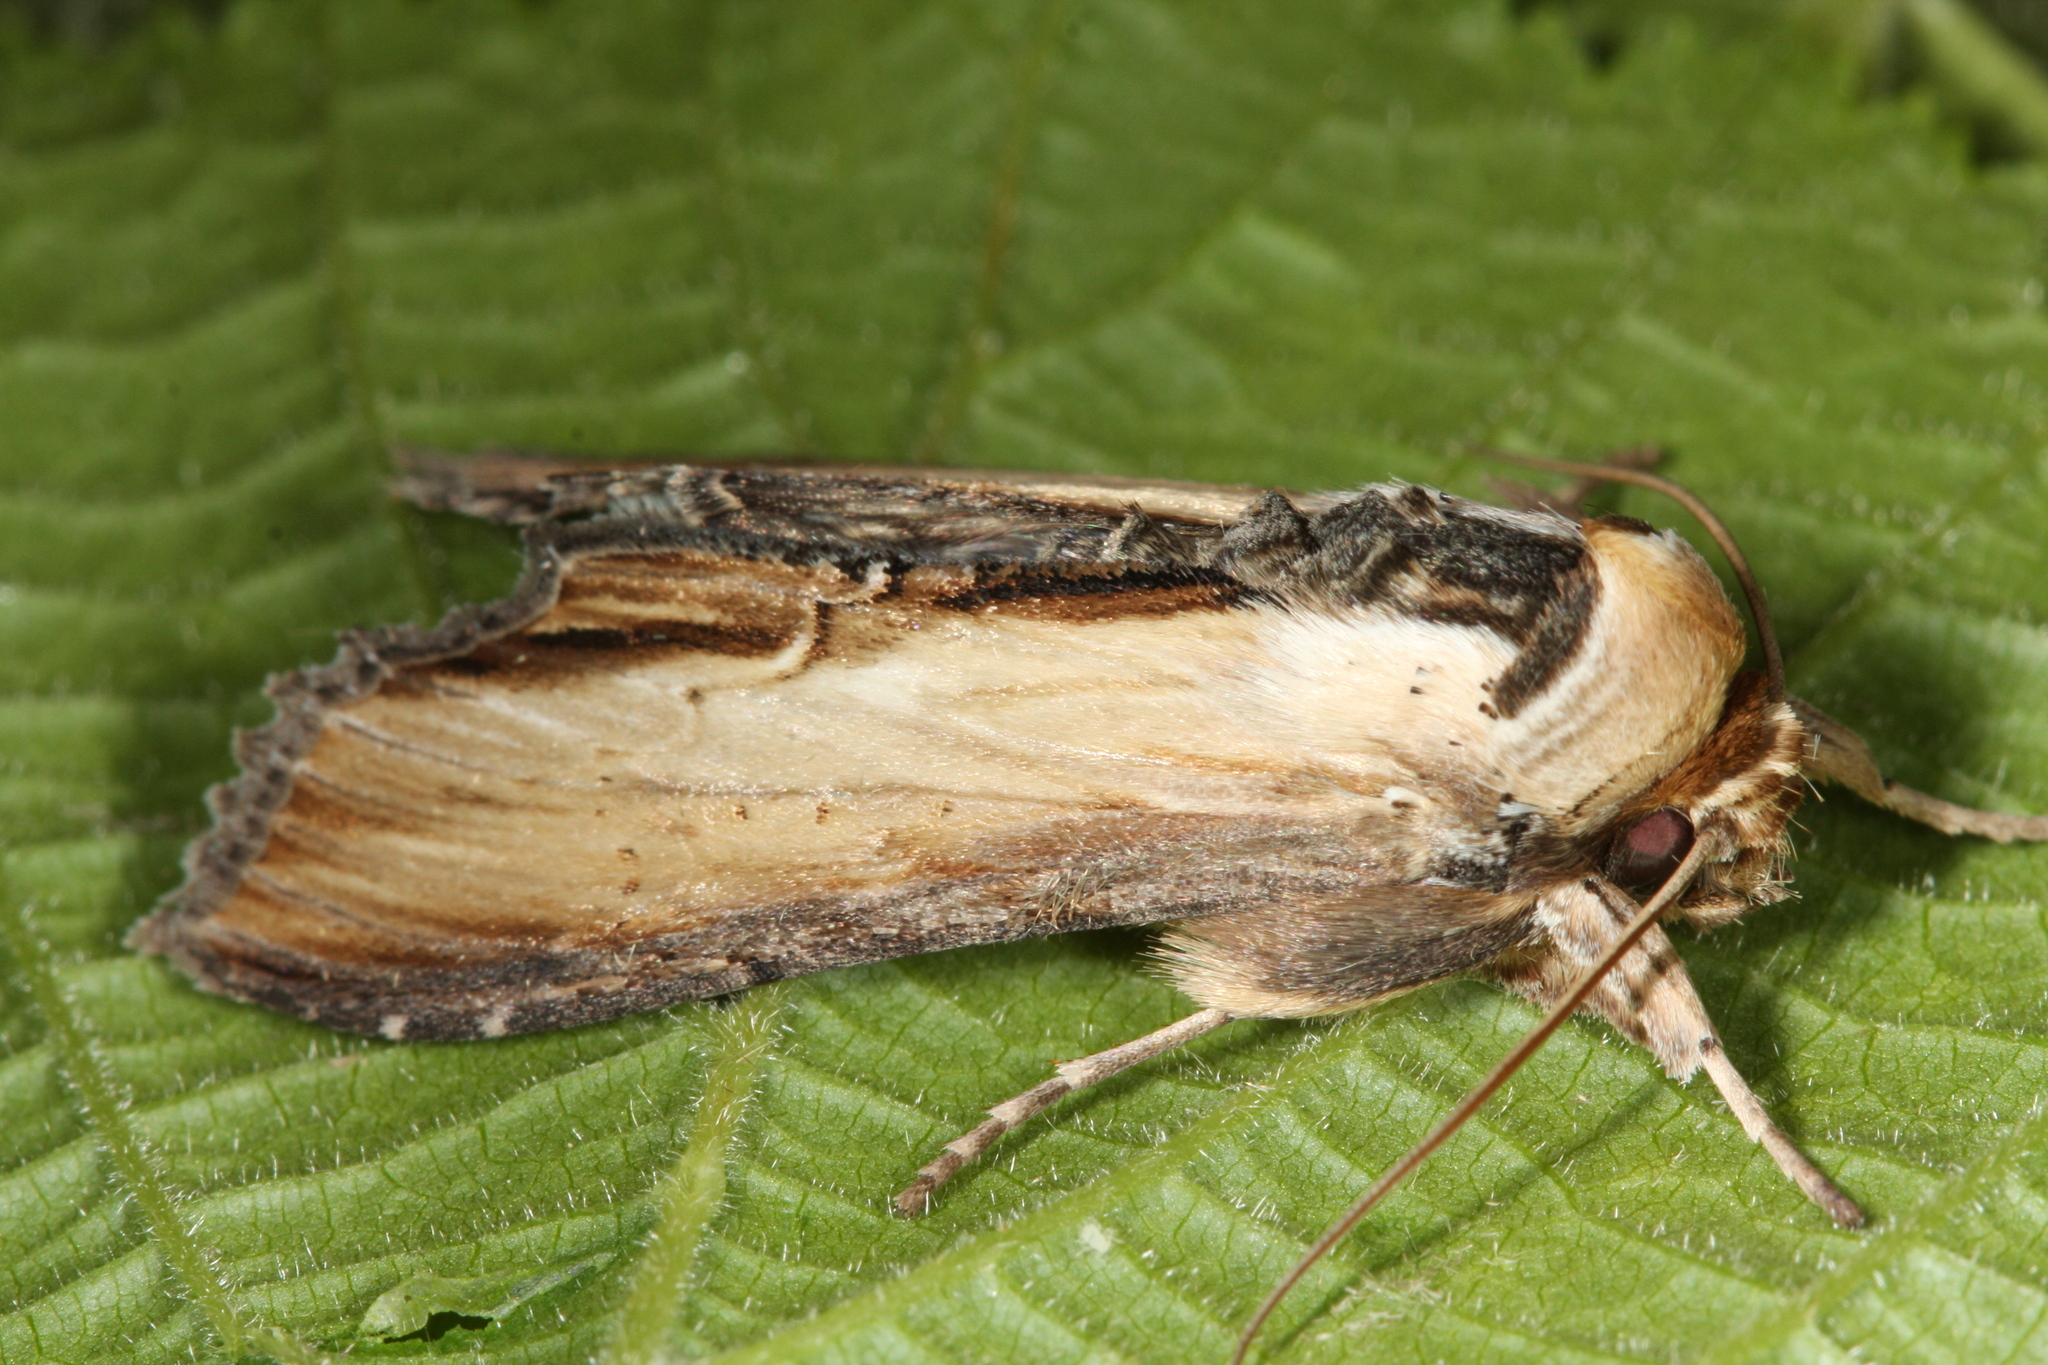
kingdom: Animalia
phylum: Arthropoda
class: Insecta
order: Lepidoptera
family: Noctuidae
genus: Shargacucullia
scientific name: Shargacucullia scrophulariae
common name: Water betony
